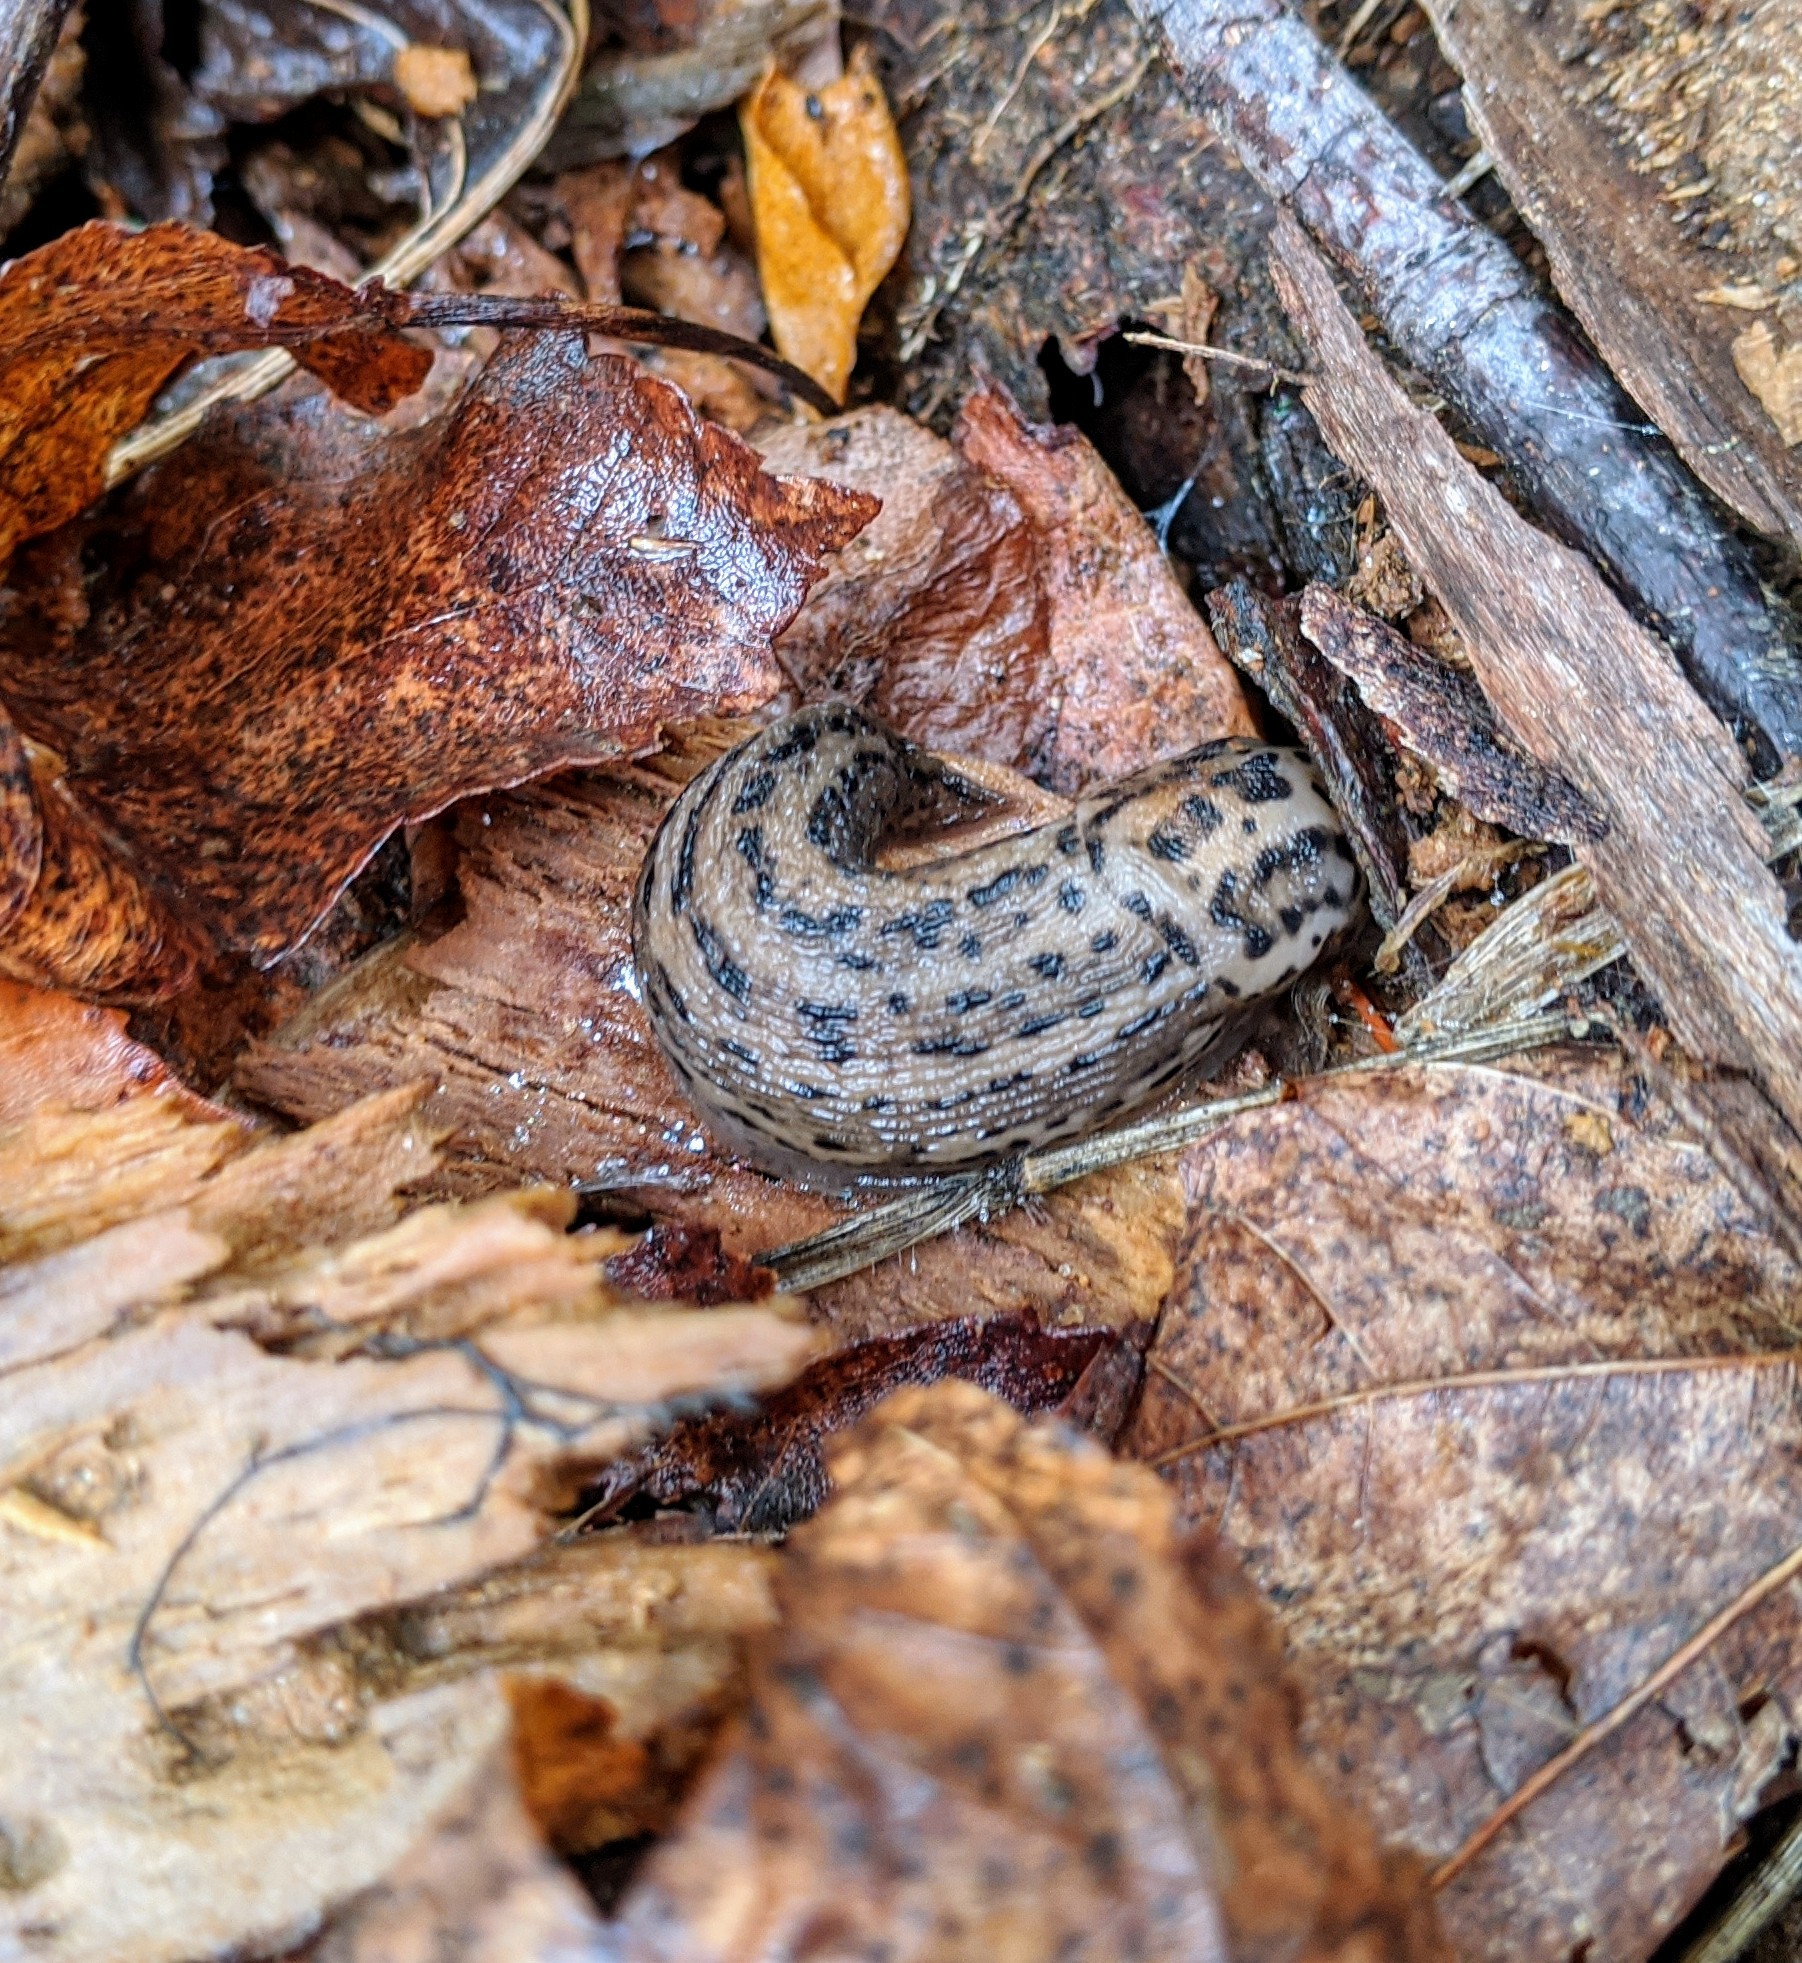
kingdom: Animalia
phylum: Mollusca
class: Gastropoda
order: Stylommatophora
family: Limacidae
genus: Limax
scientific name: Limax maximus
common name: Great grey slug
